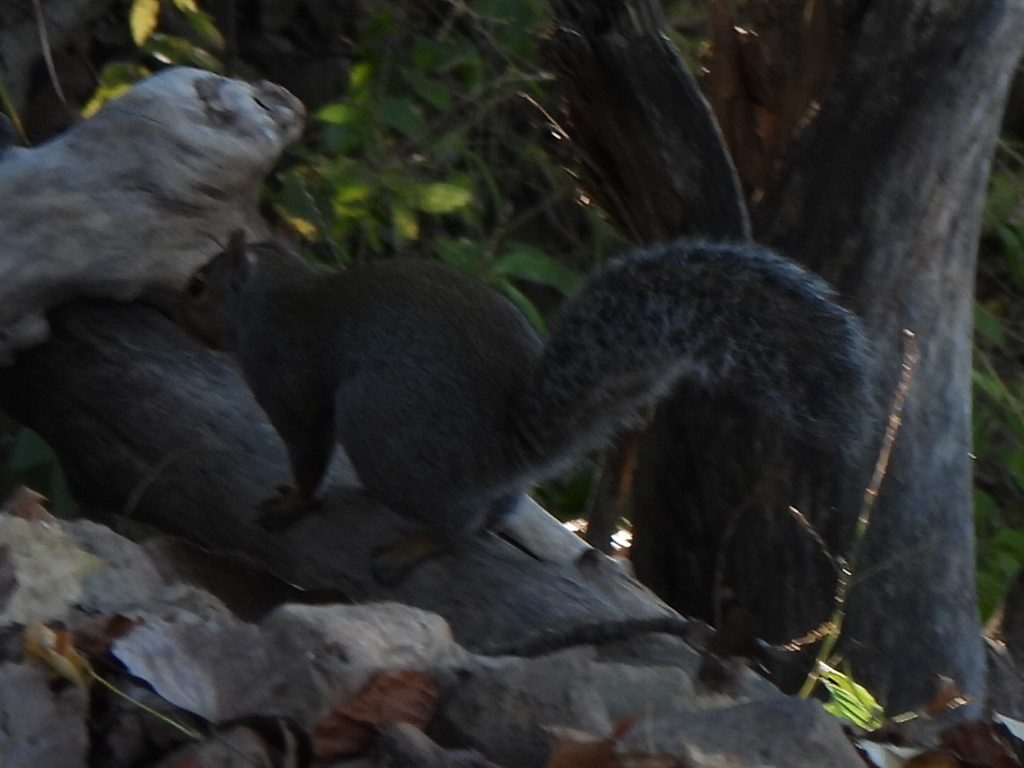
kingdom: Animalia
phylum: Chordata
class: Mammalia
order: Rodentia
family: Sciuridae
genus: Sciurus
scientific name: Sciurus carolinensis
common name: Eastern gray squirrel
